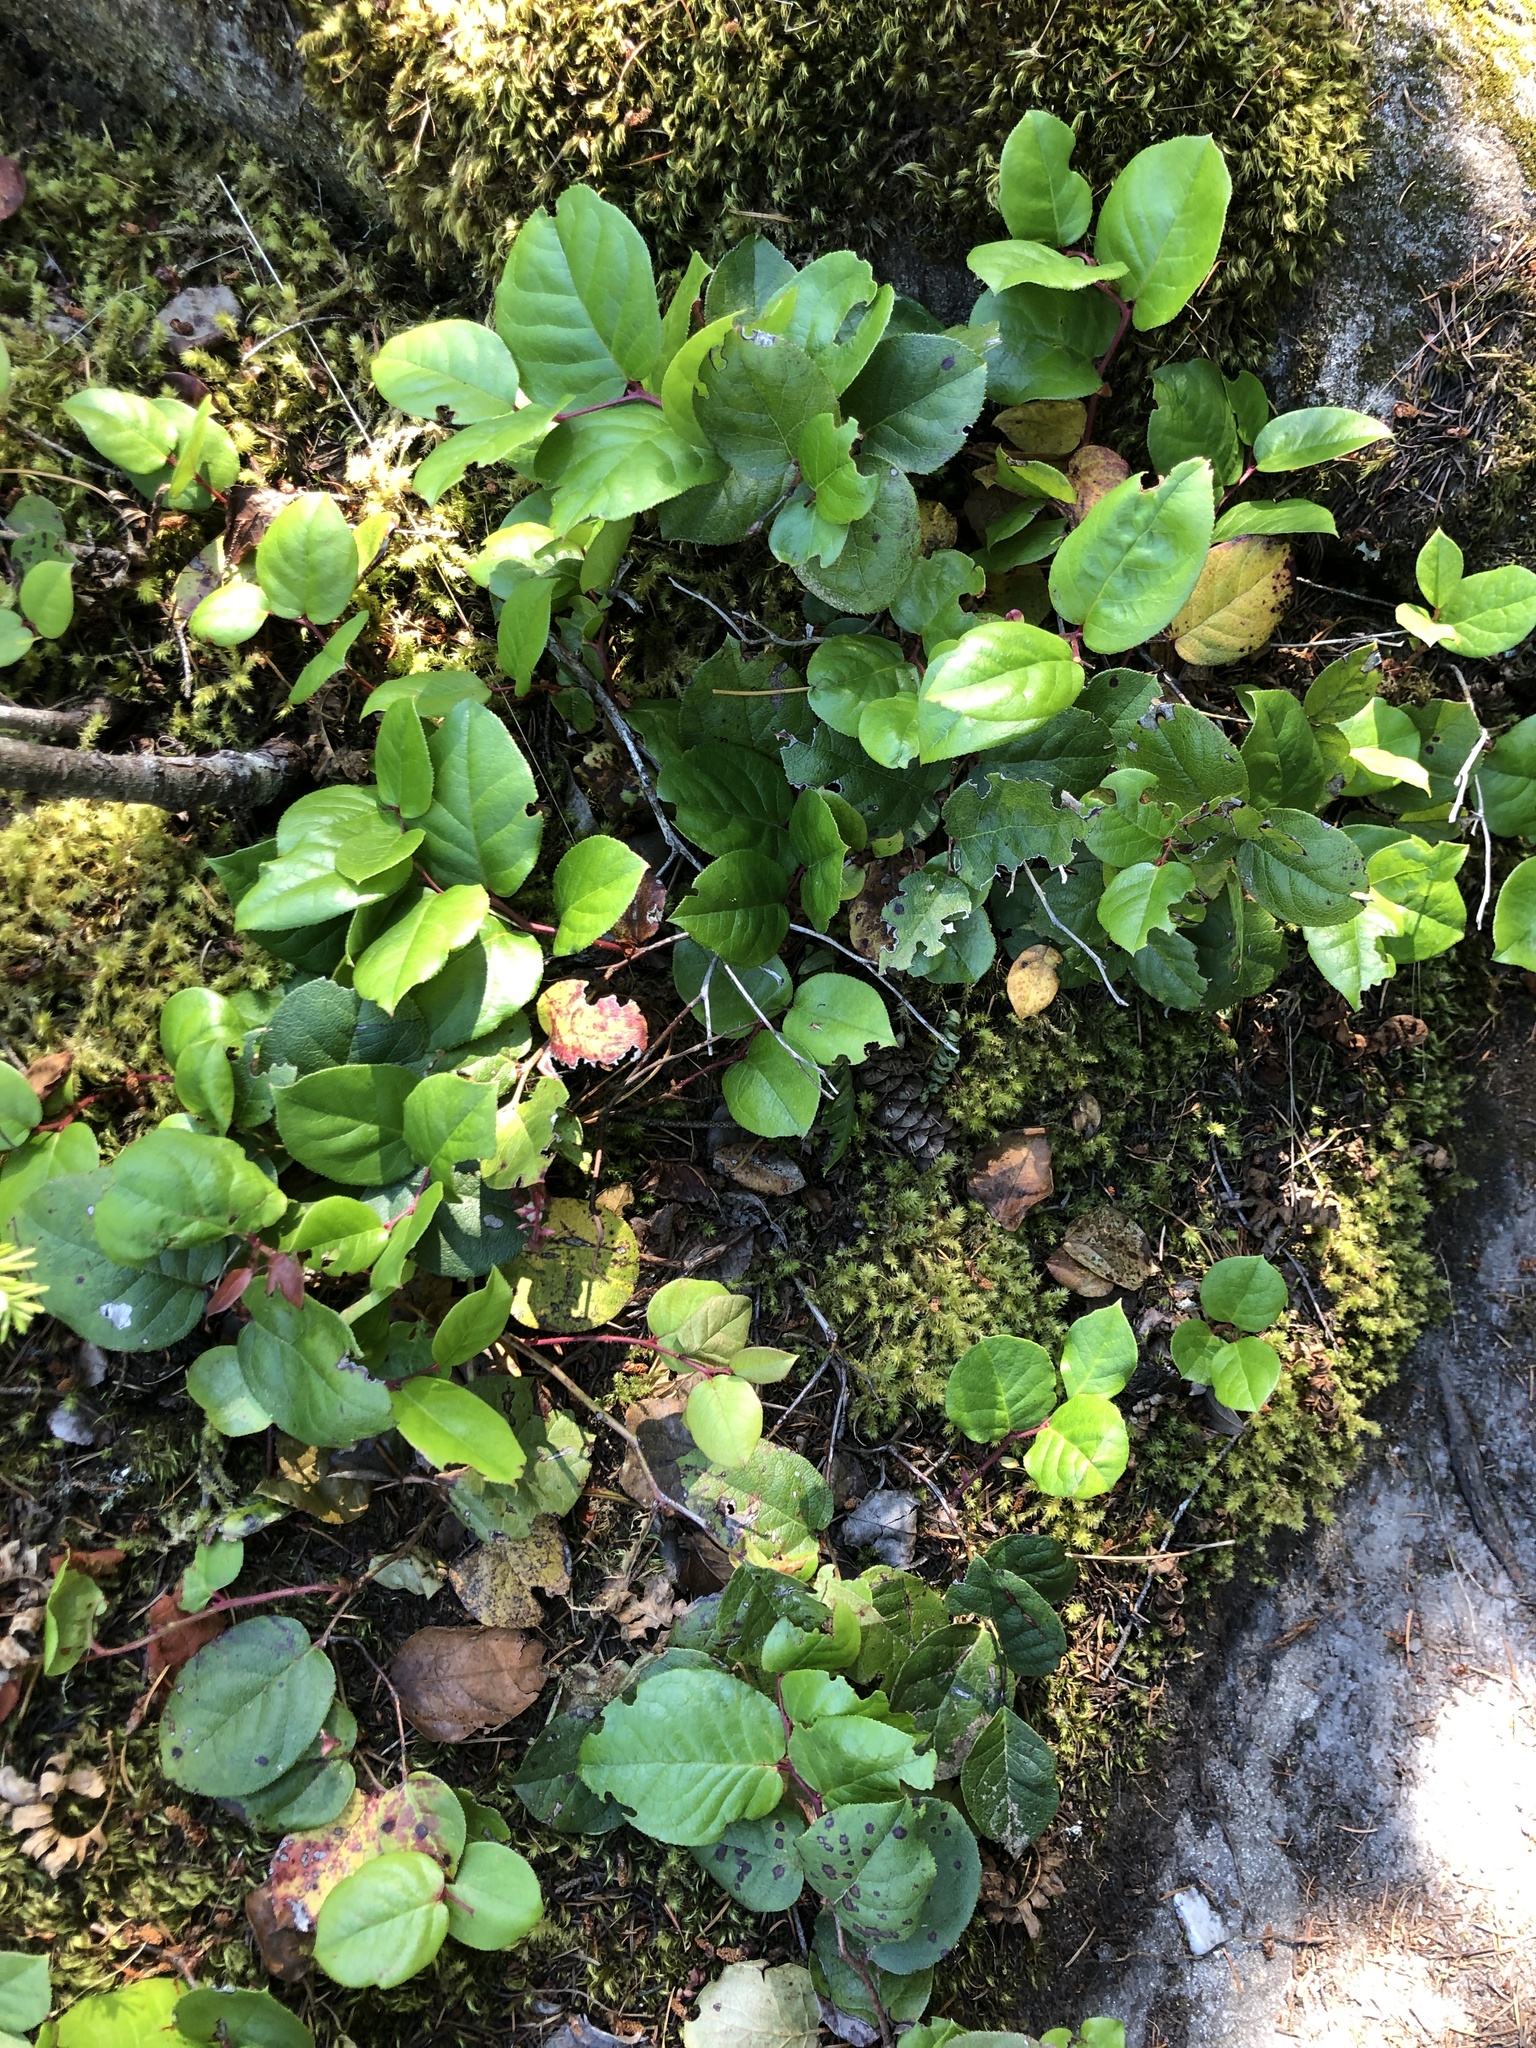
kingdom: Plantae
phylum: Tracheophyta
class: Magnoliopsida
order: Ericales
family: Ericaceae
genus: Gaultheria
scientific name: Gaultheria shallon
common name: Shallon
